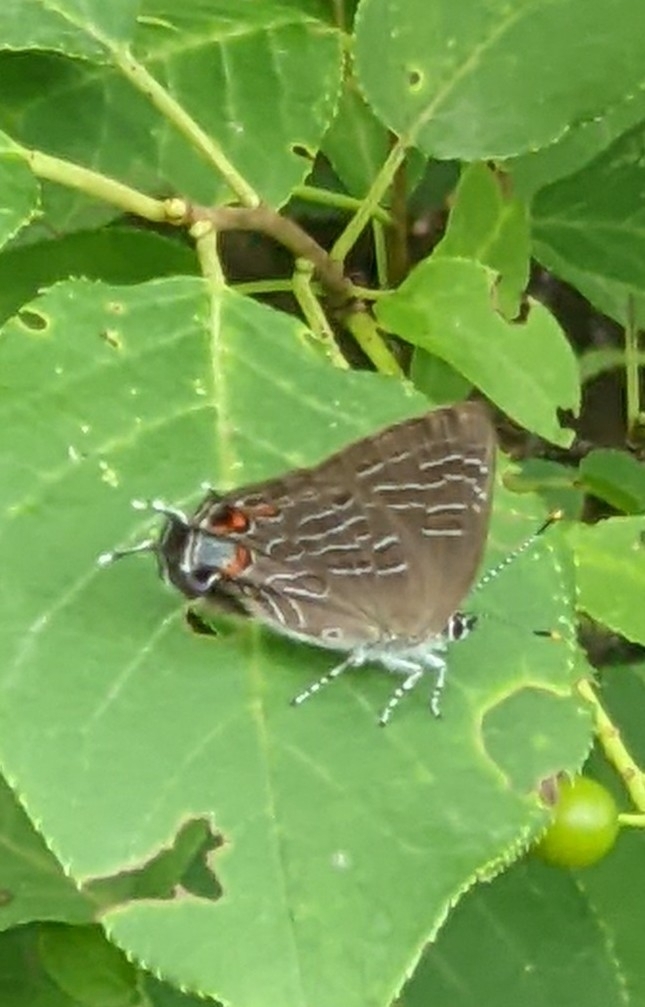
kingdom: Animalia
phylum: Arthropoda
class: Insecta
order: Lepidoptera
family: Lycaenidae
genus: Satyrium
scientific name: Satyrium liparops
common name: Striped hairstreak
